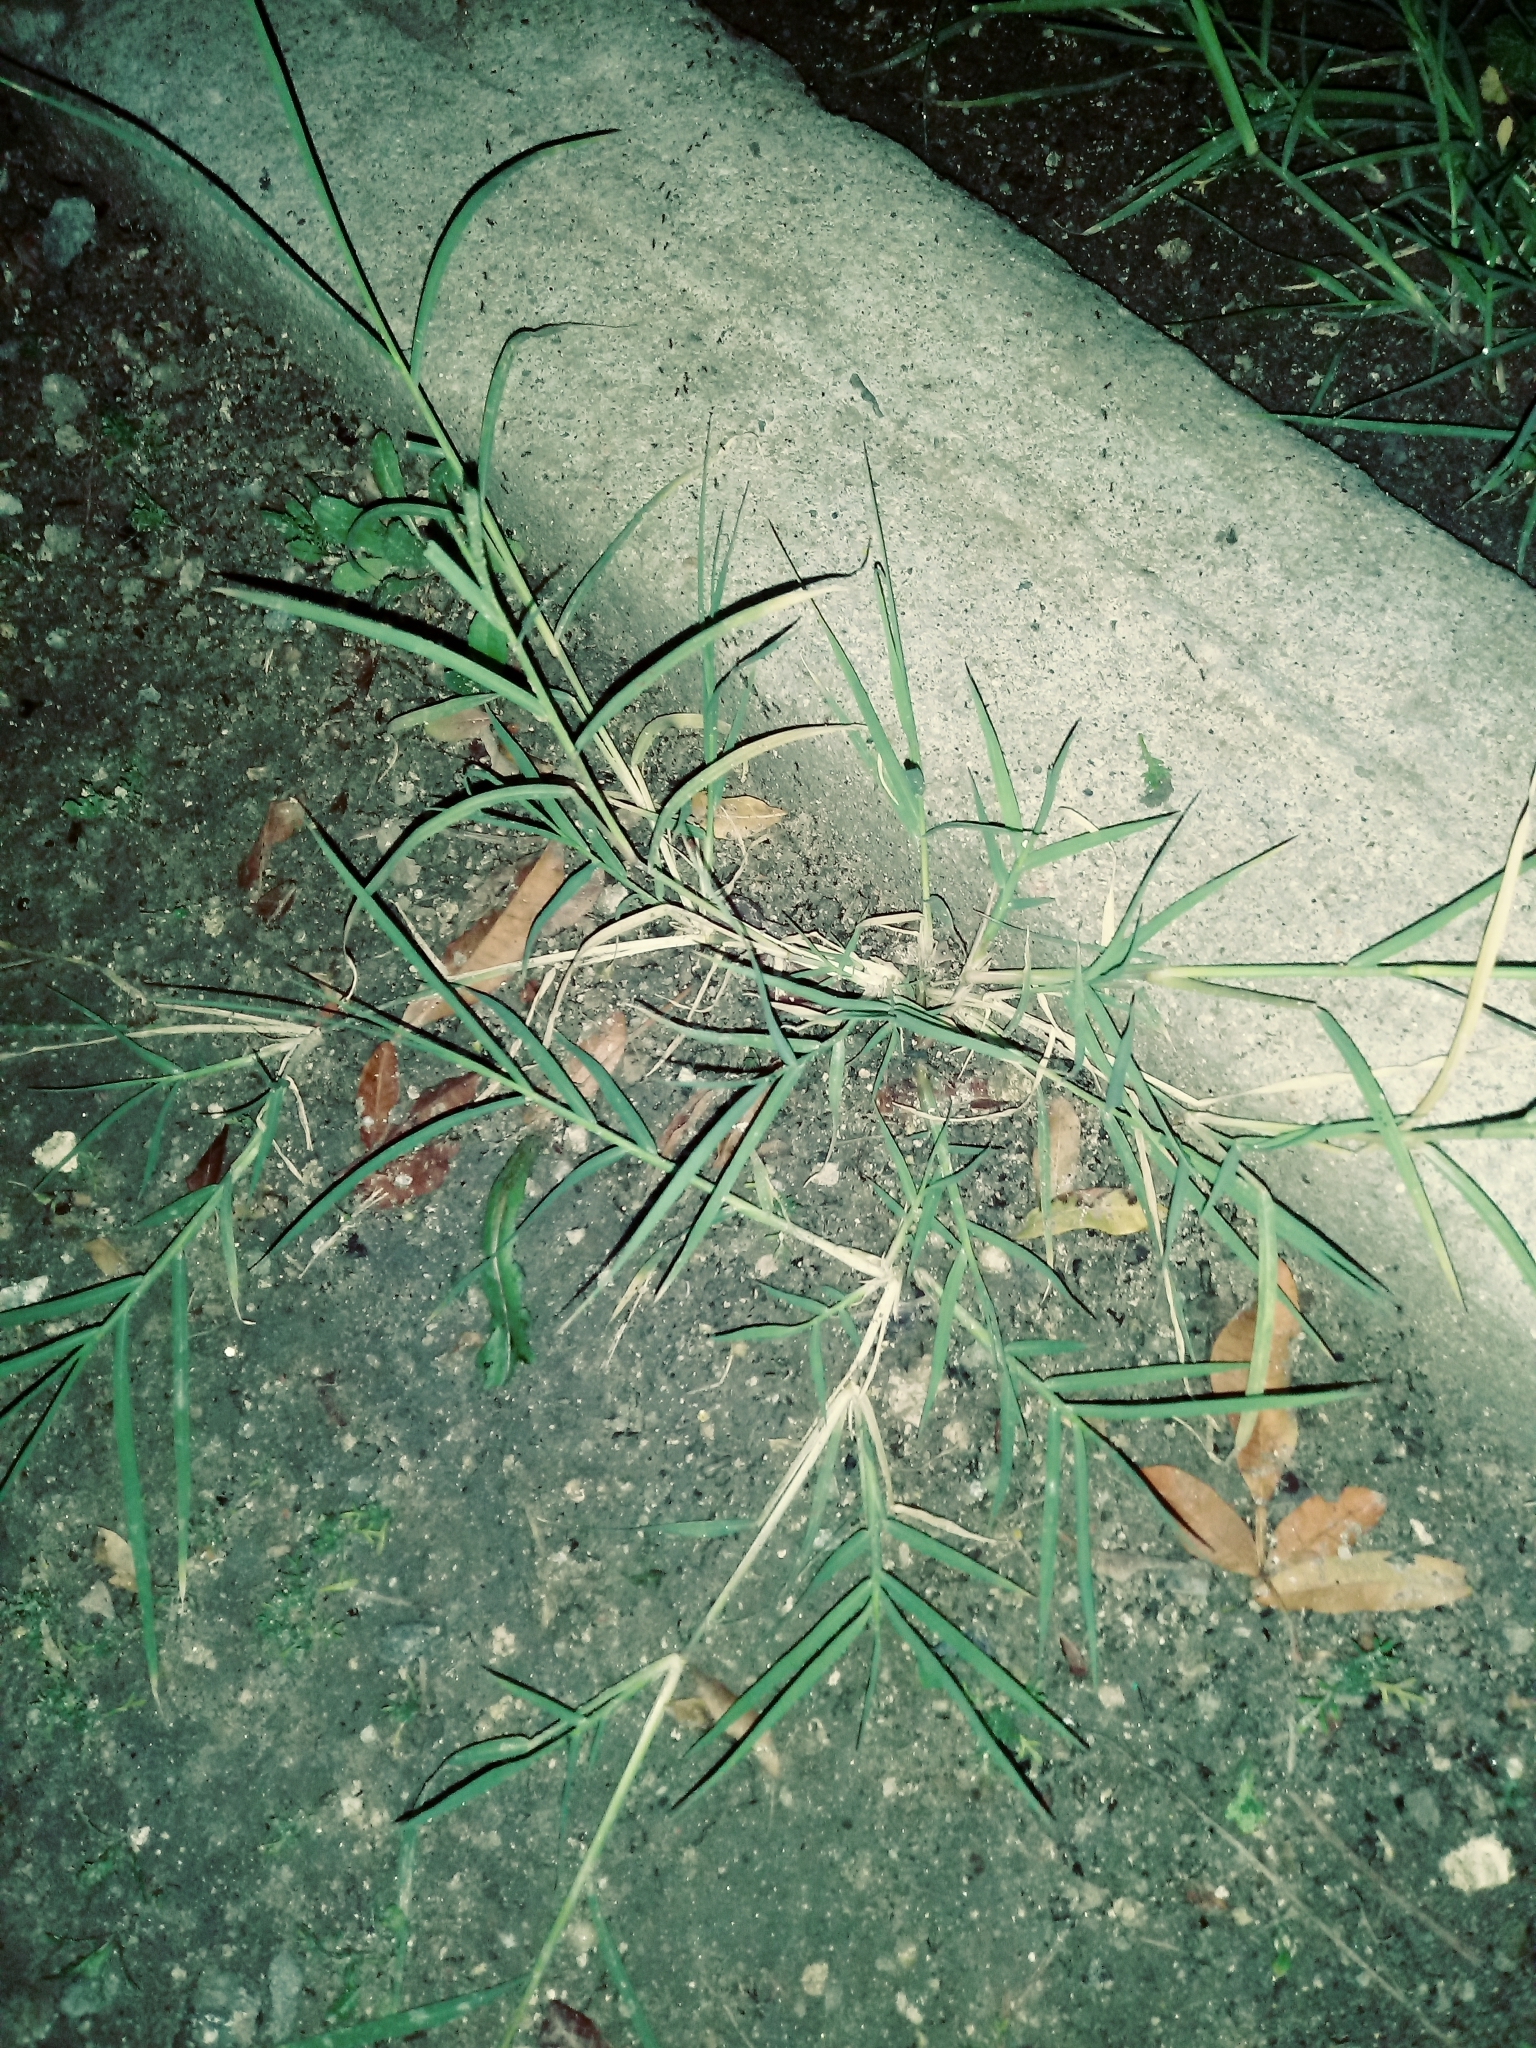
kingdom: Plantae
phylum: Tracheophyta
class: Liliopsida
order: Poales
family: Poaceae
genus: Cynodon
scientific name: Cynodon dactylon
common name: Bermuda grass
